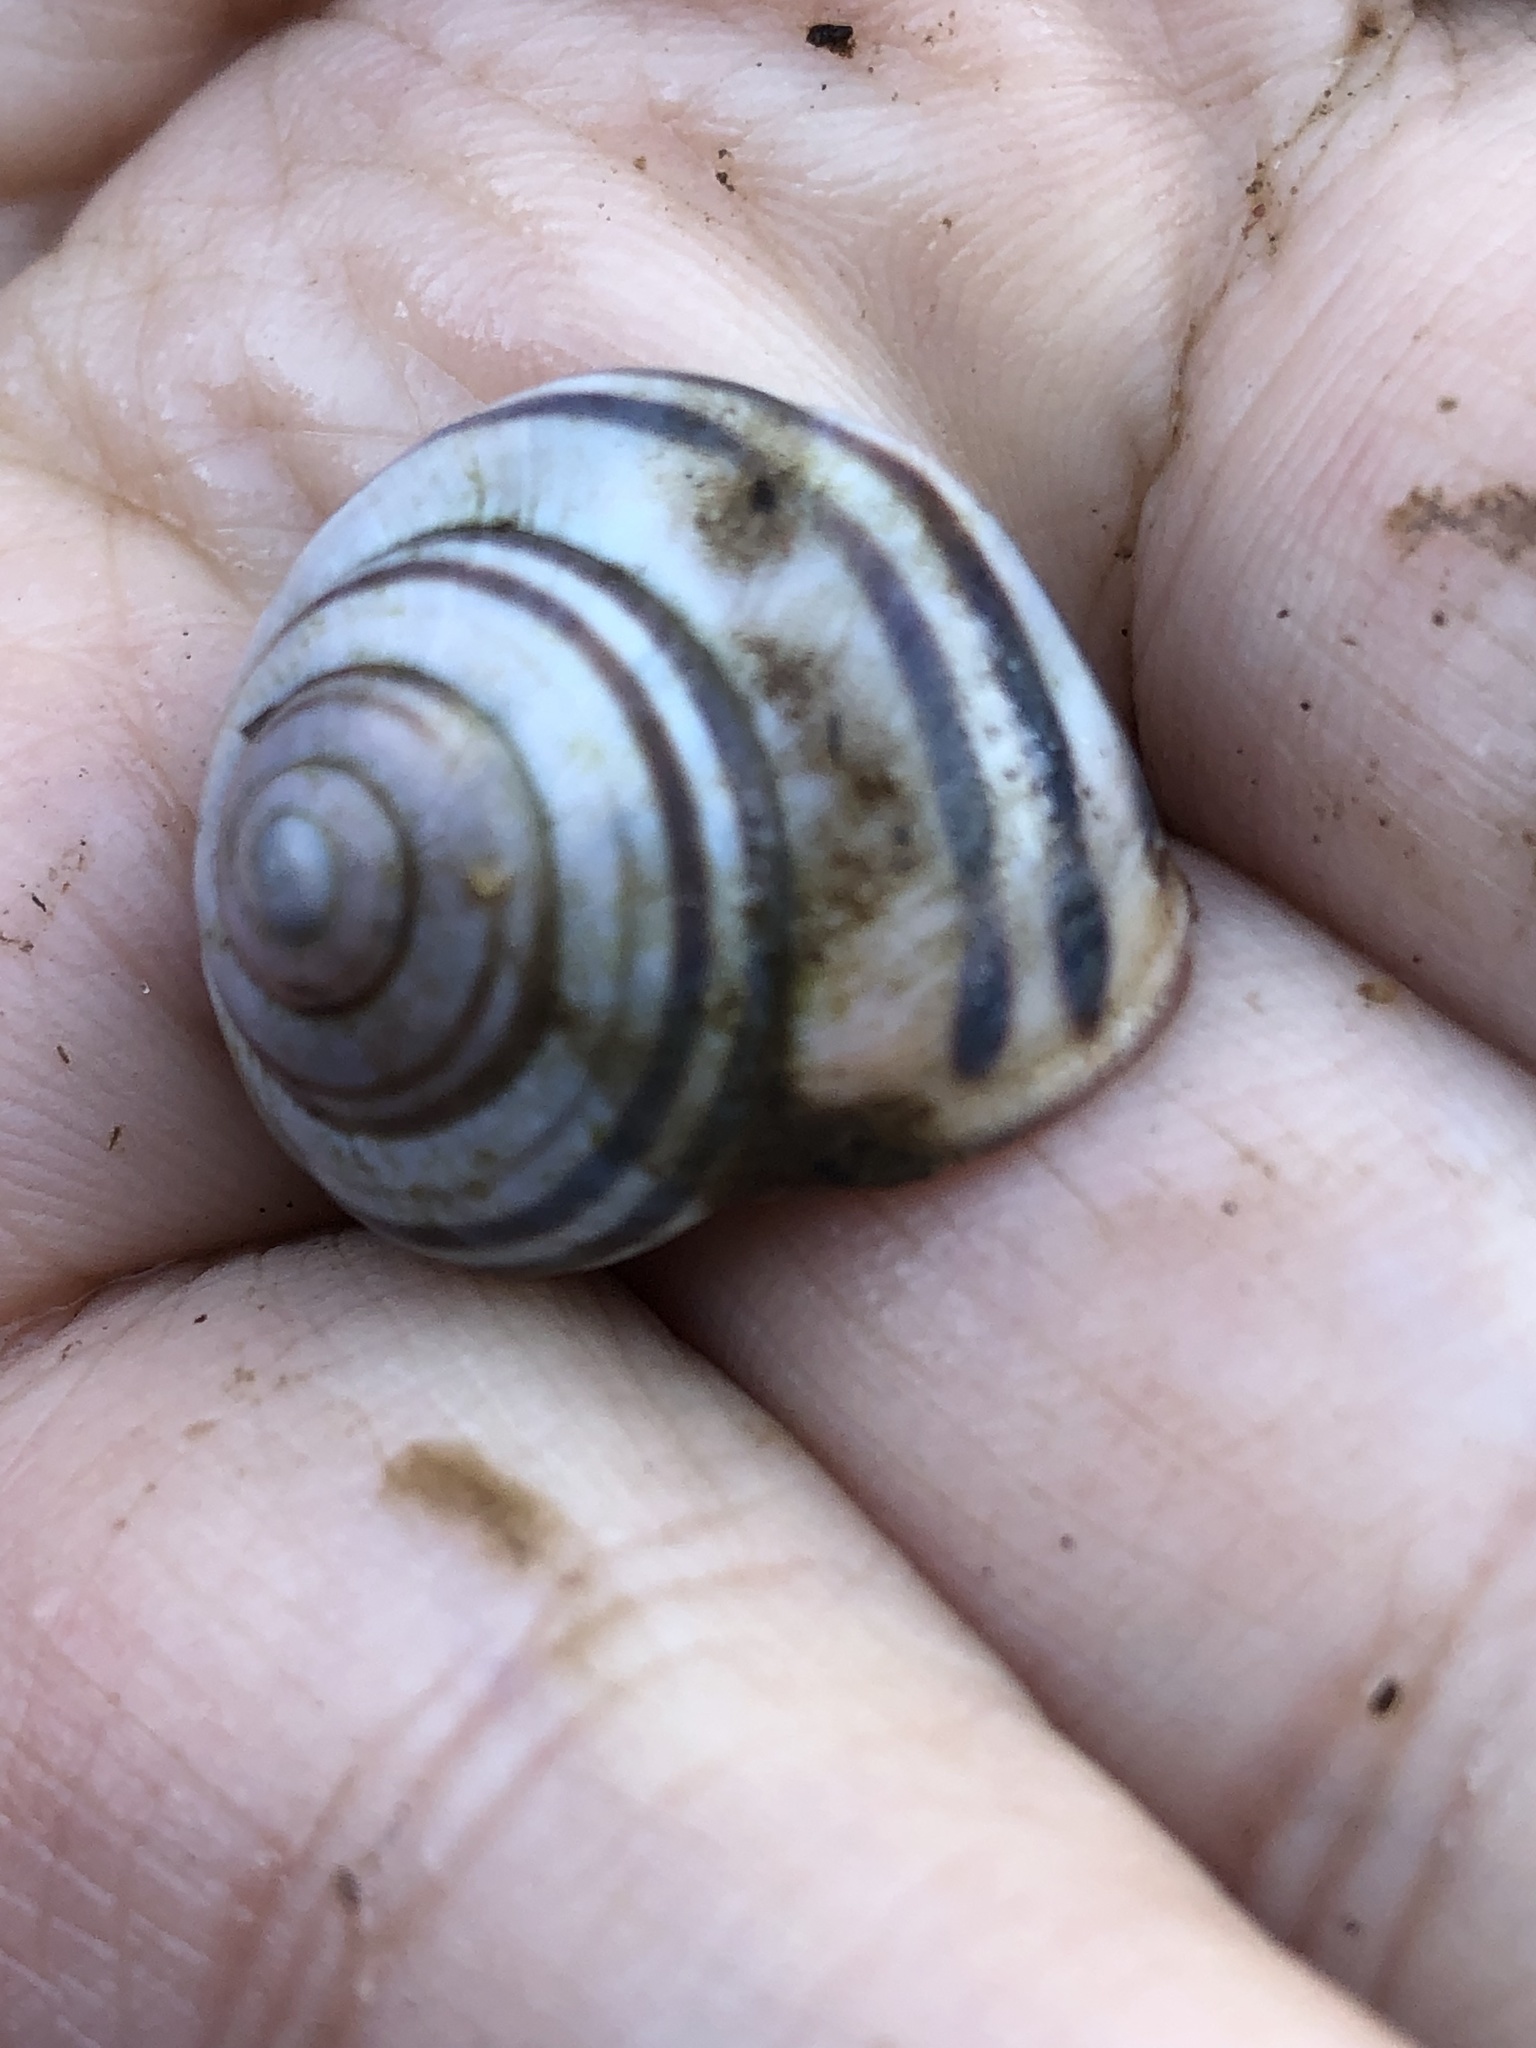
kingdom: Animalia
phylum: Mollusca
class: Gastropoda
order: Stylommatophora
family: Helicidae
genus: Cepaea
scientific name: Cepaea nemoralis
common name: Grovesnail
